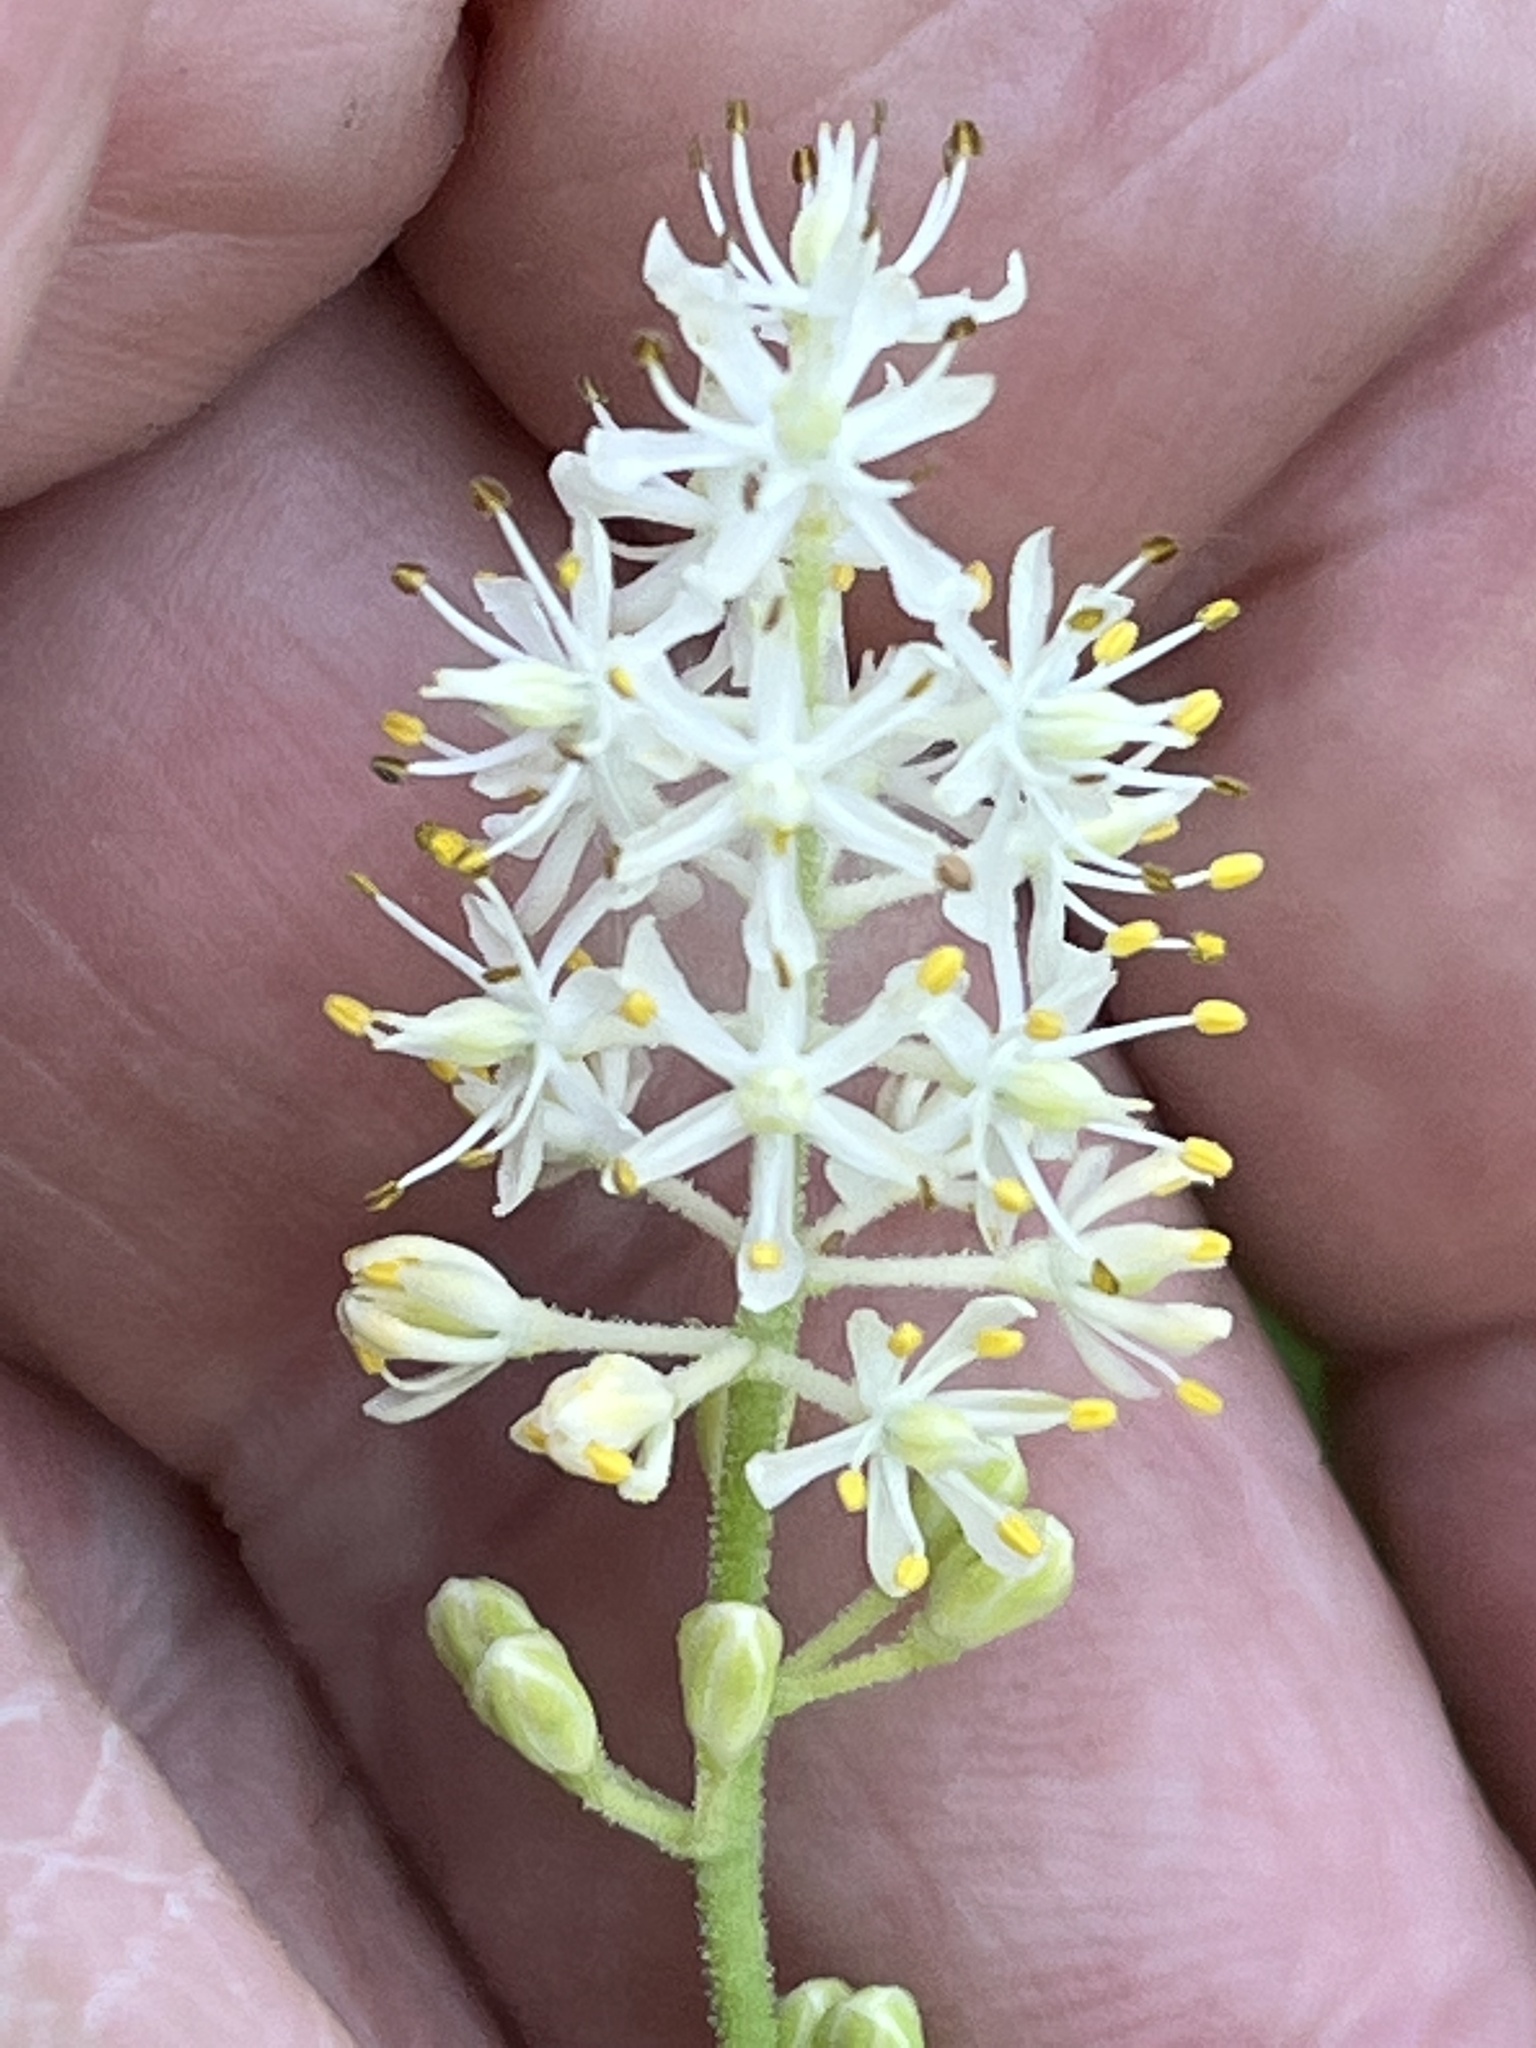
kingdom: Plantae
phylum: Tracheophyta
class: Liliopsida
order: Alismatales
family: Tofieldiaceae
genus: Triantha
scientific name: Triantha racemosa
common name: Coastal false asphodel
